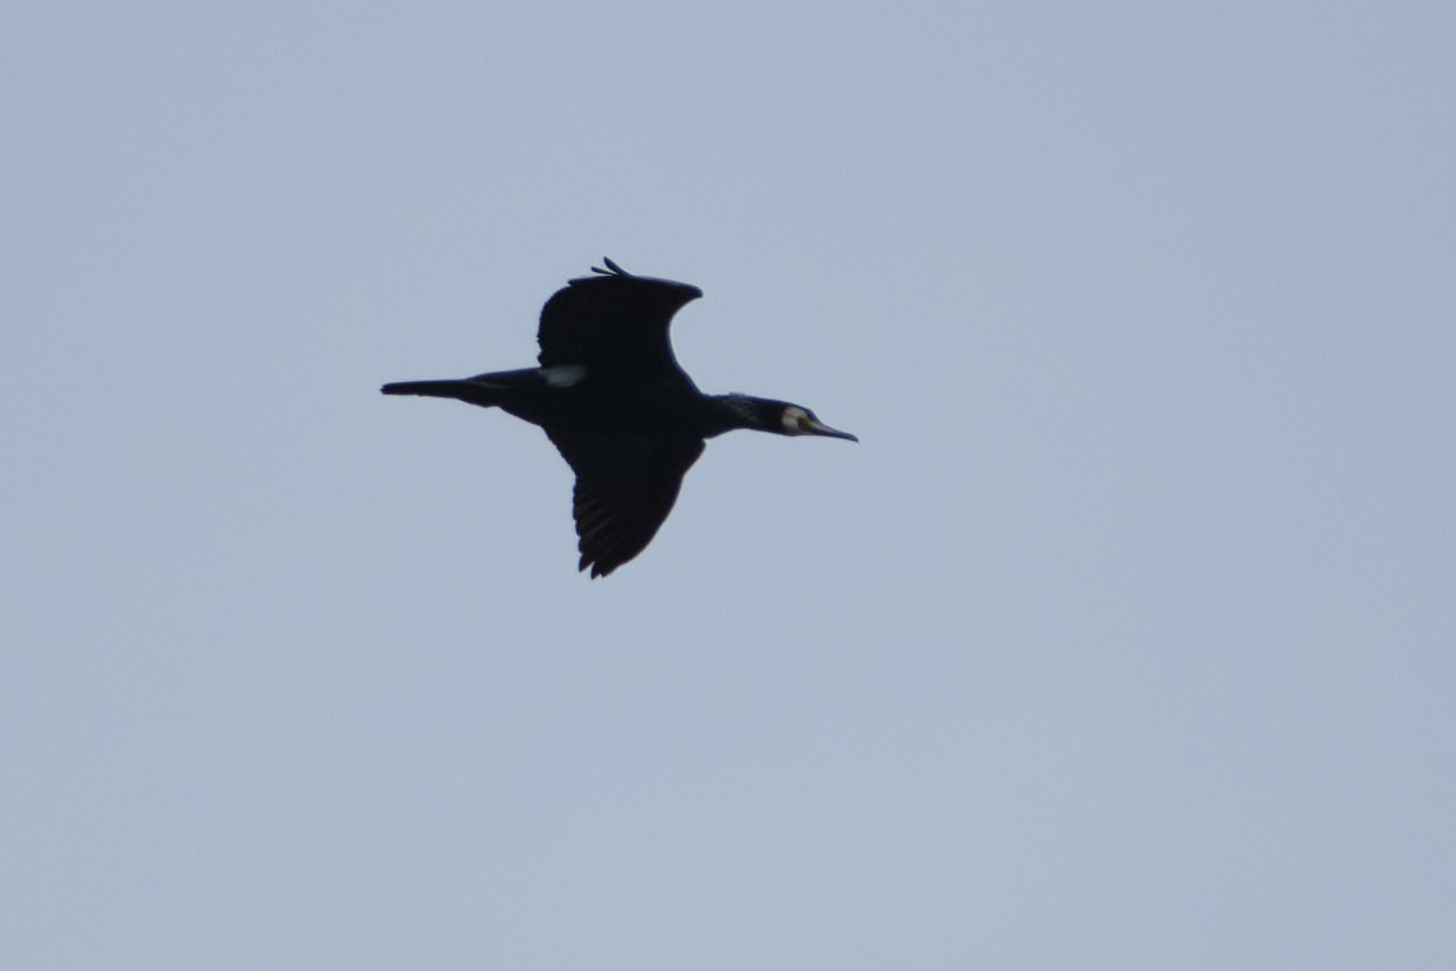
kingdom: Animalia
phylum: Chordata
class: Aves
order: Suliformes
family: Phalacrocoracidae
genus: Phalacrocorax
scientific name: Phalacrocorax carbo
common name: Great cormorant
